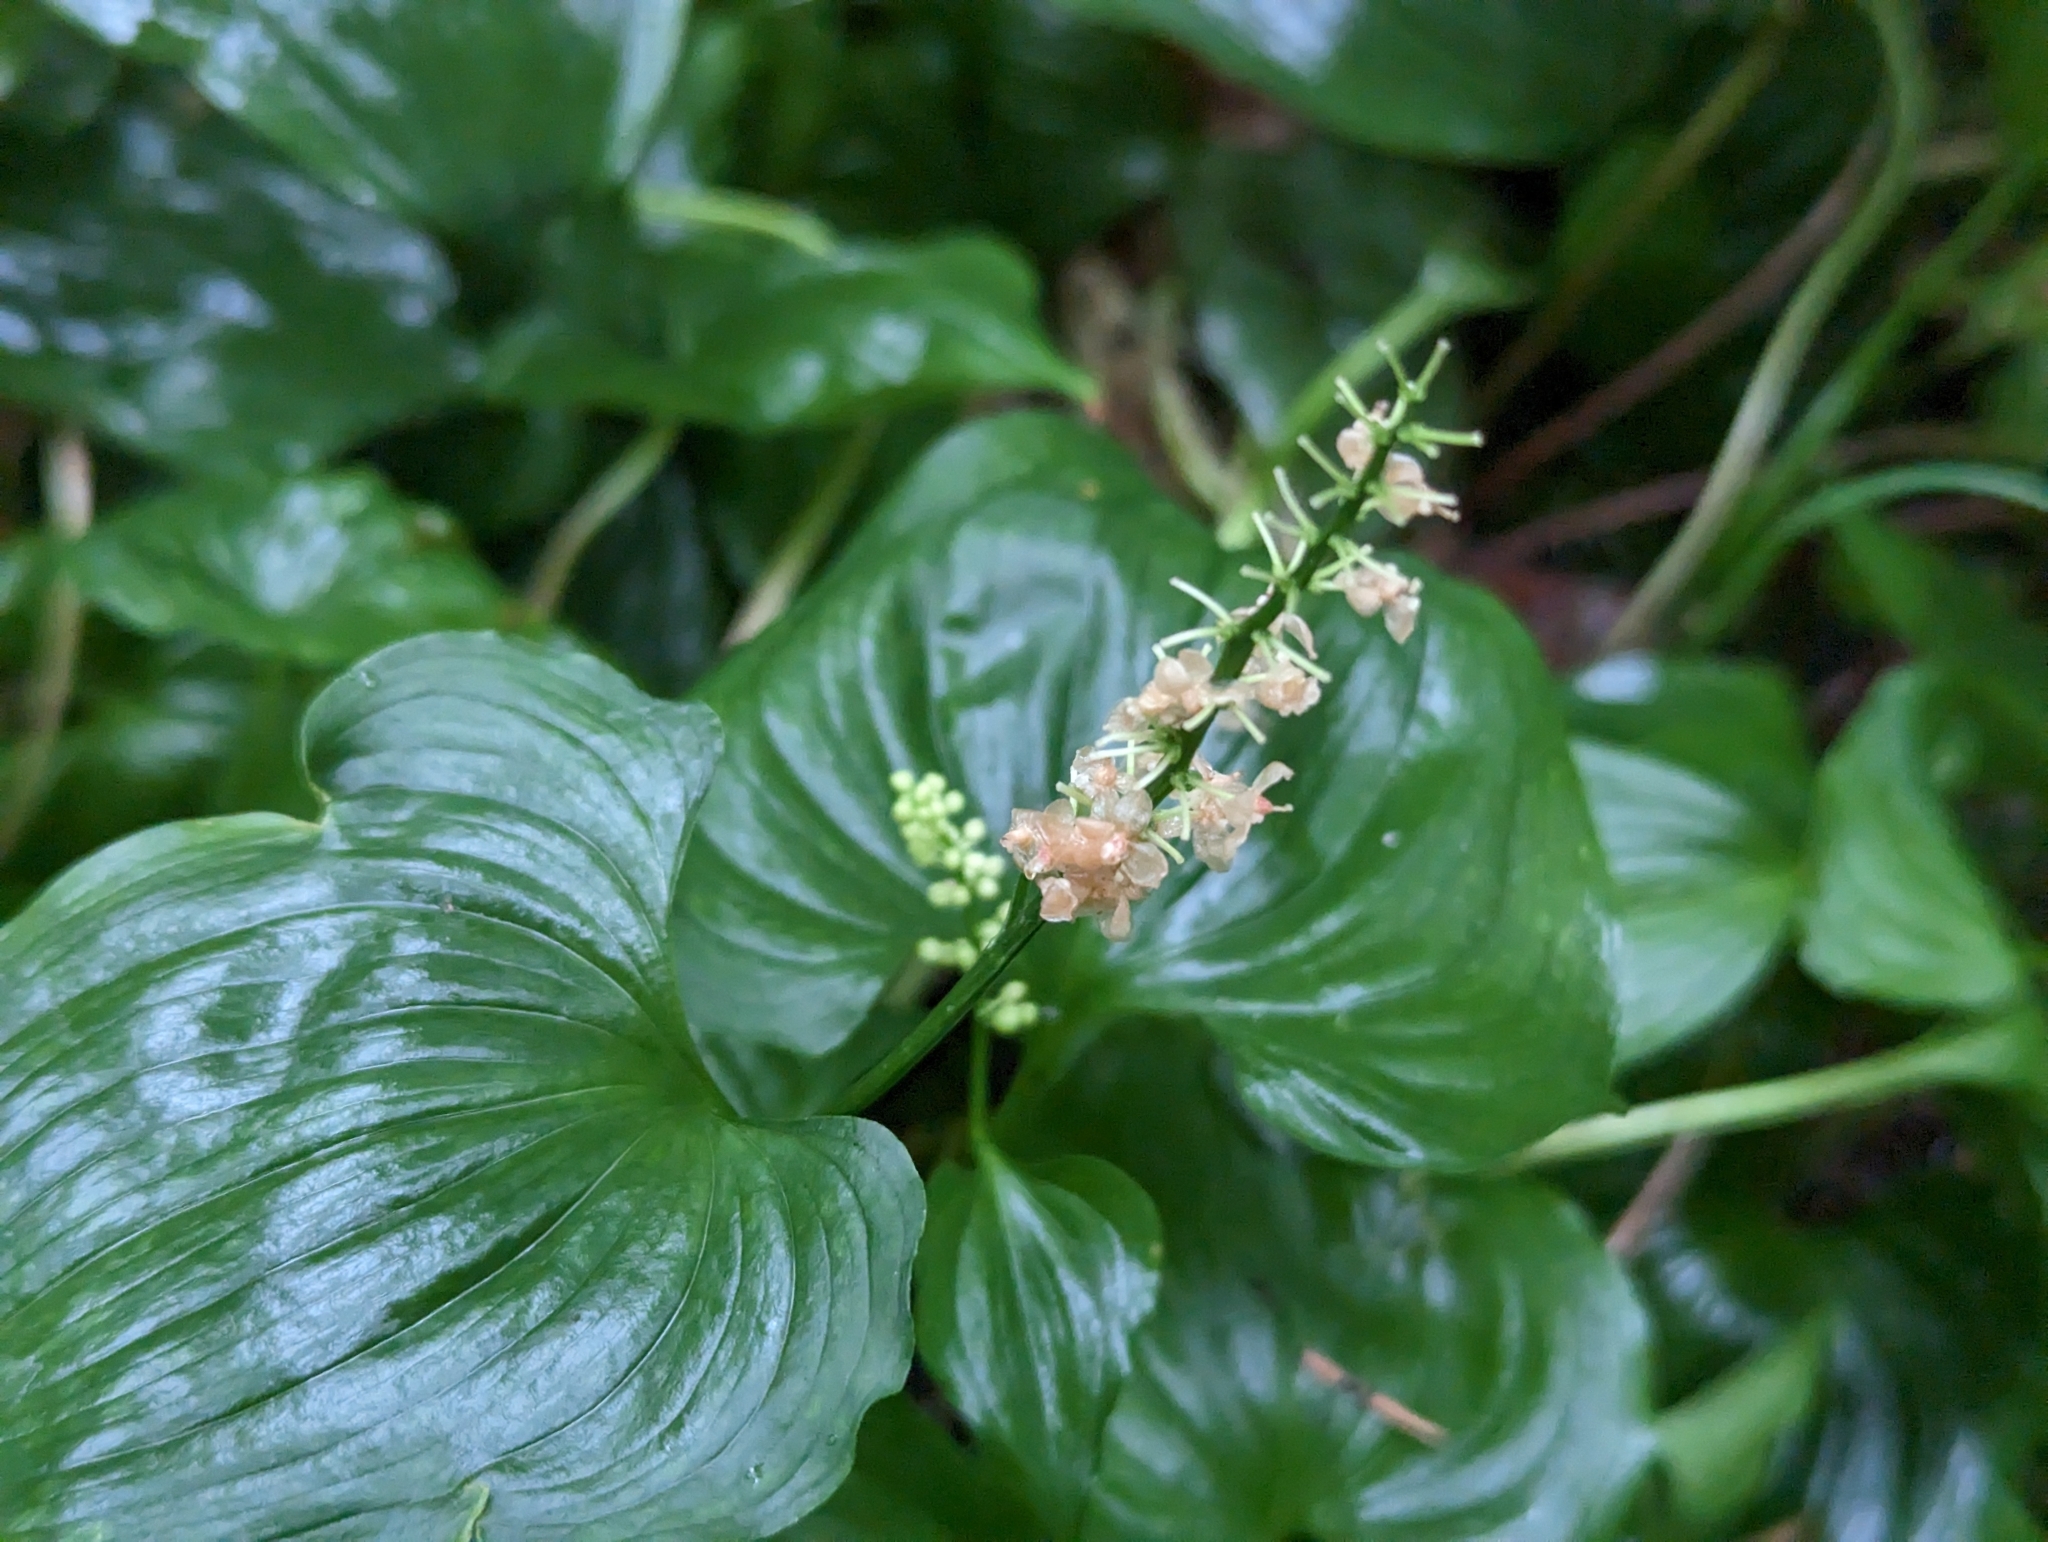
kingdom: Plantae
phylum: Tracheophyta
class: Liliopsida
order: Asparagales
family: Asparagaceae
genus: Maianthemum
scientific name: Maianthemum dilatatum
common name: False lily-of-the-valley
